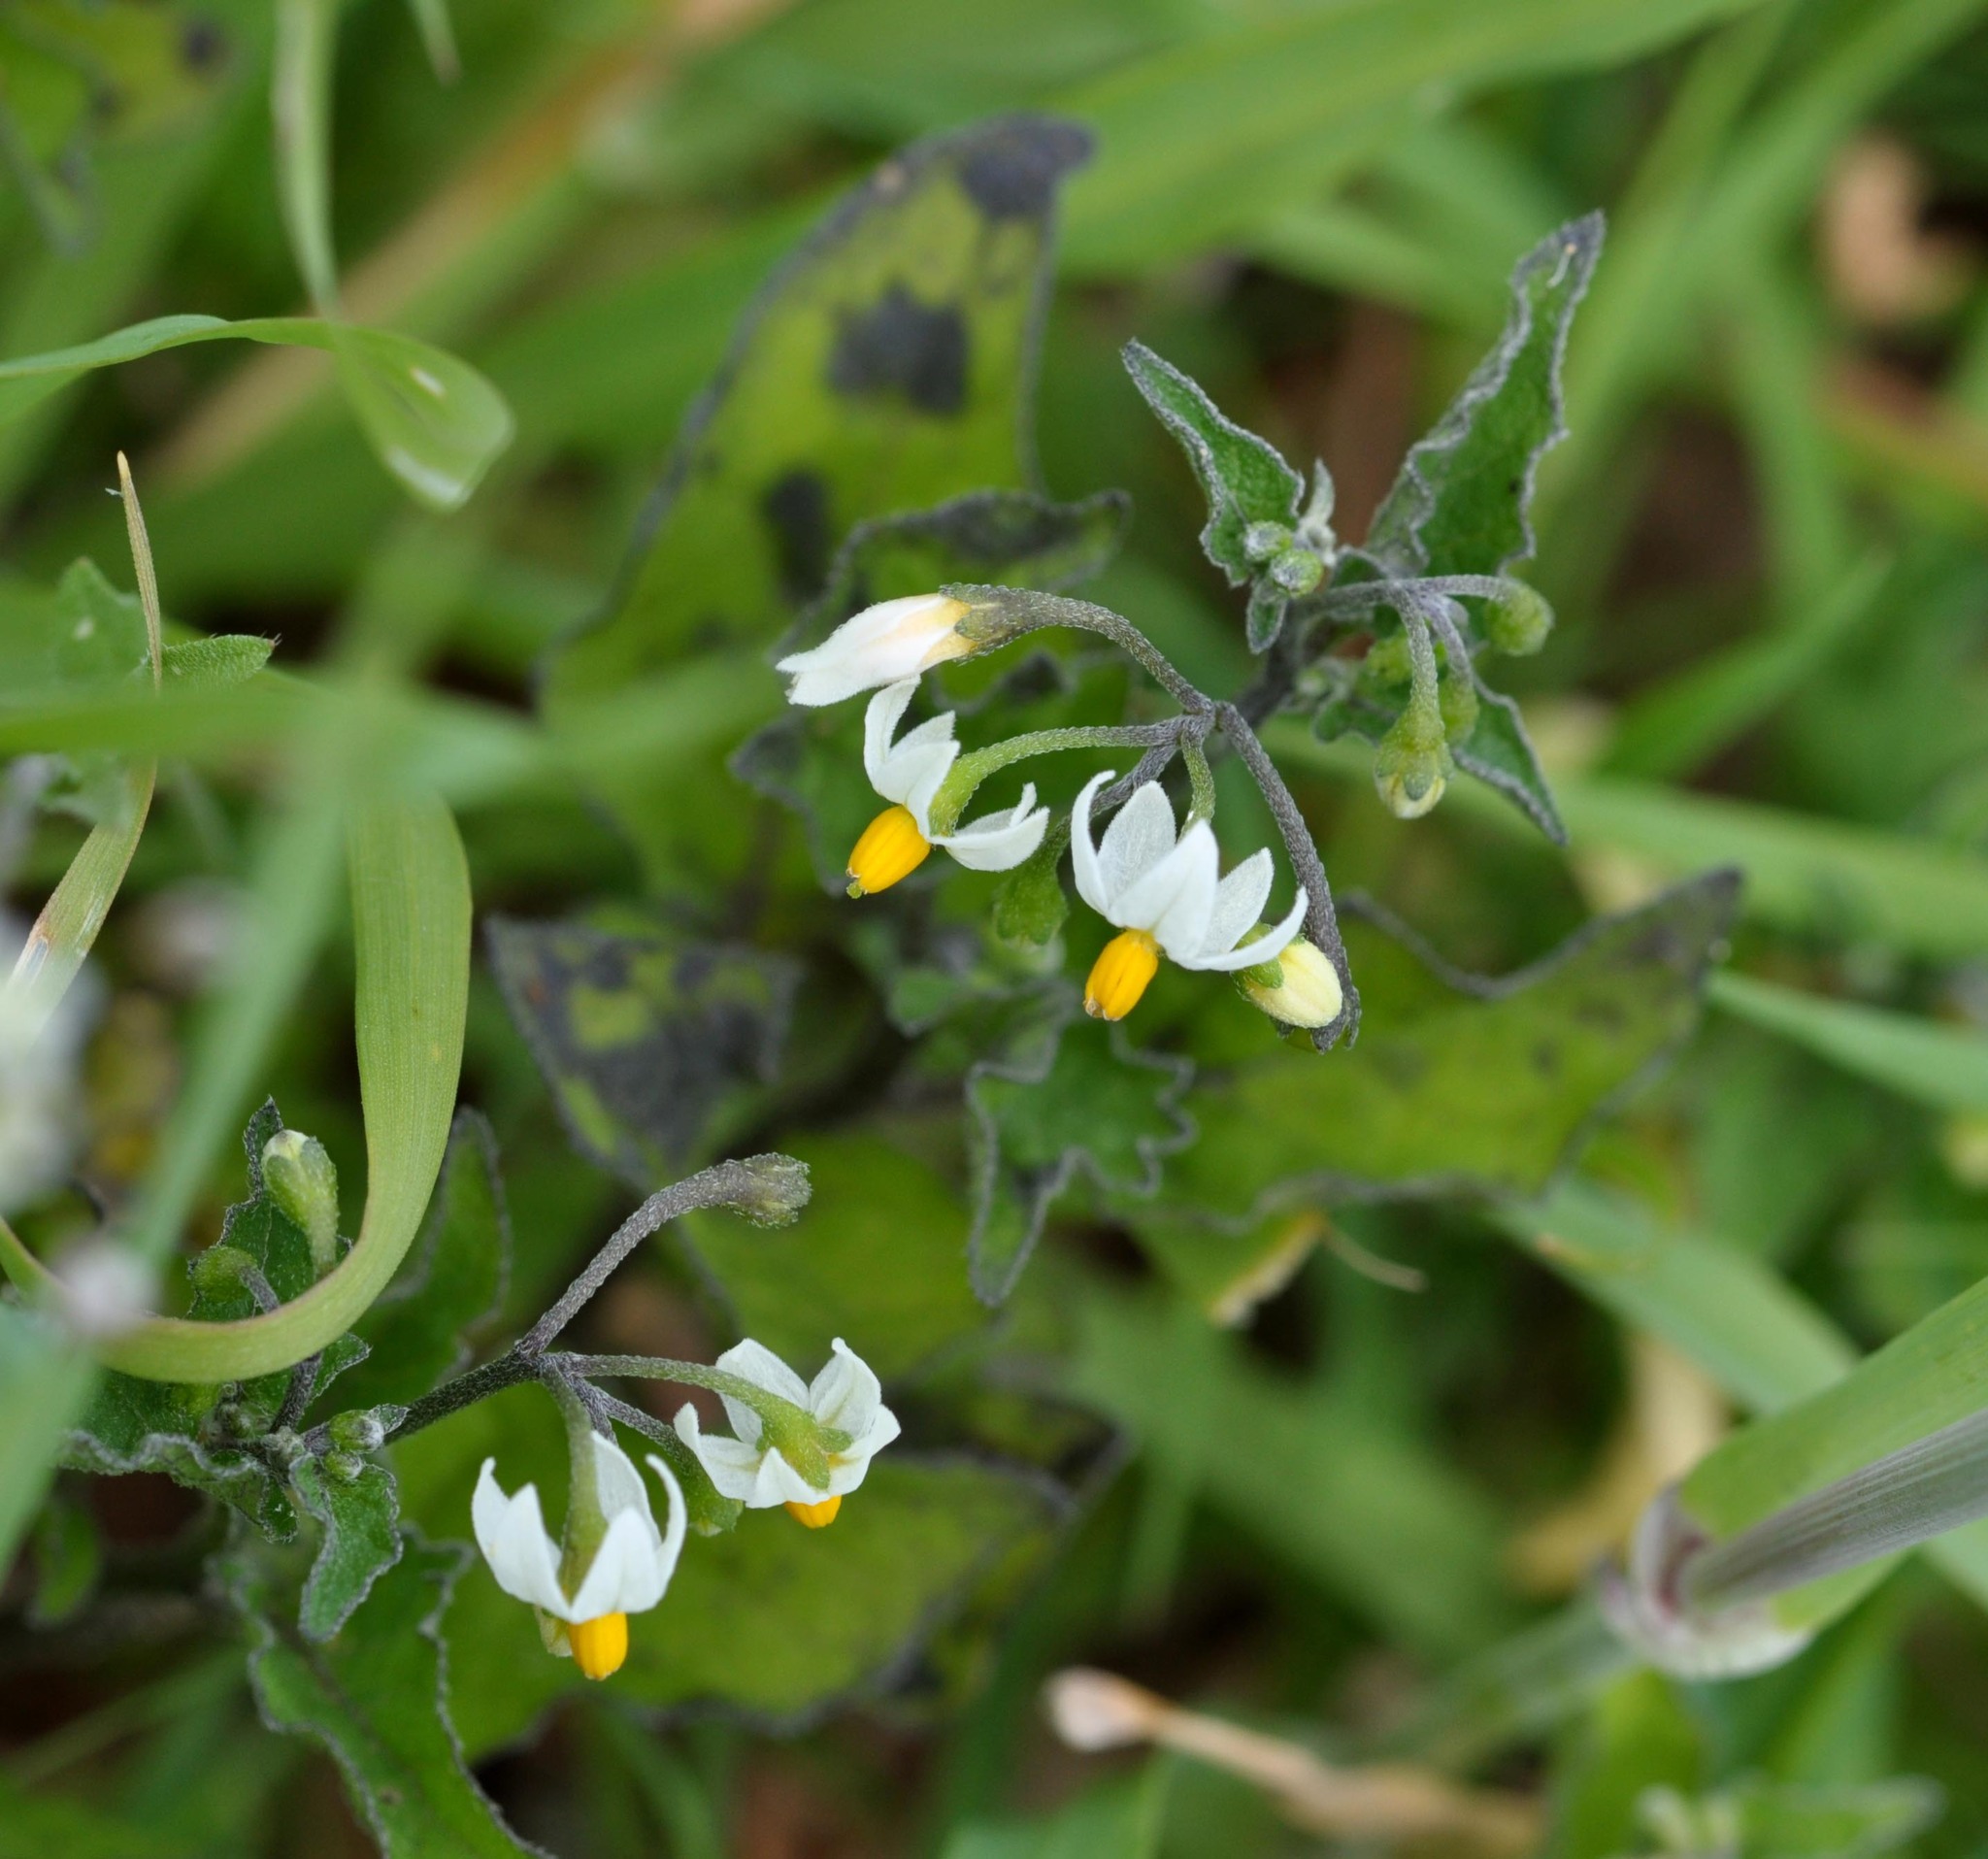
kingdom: Plantae
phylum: Tracheophyta
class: Magnoliopsida
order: Solanales
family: Solanaceae
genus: Solanum
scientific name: Solanum nigrum
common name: Black nightshade
